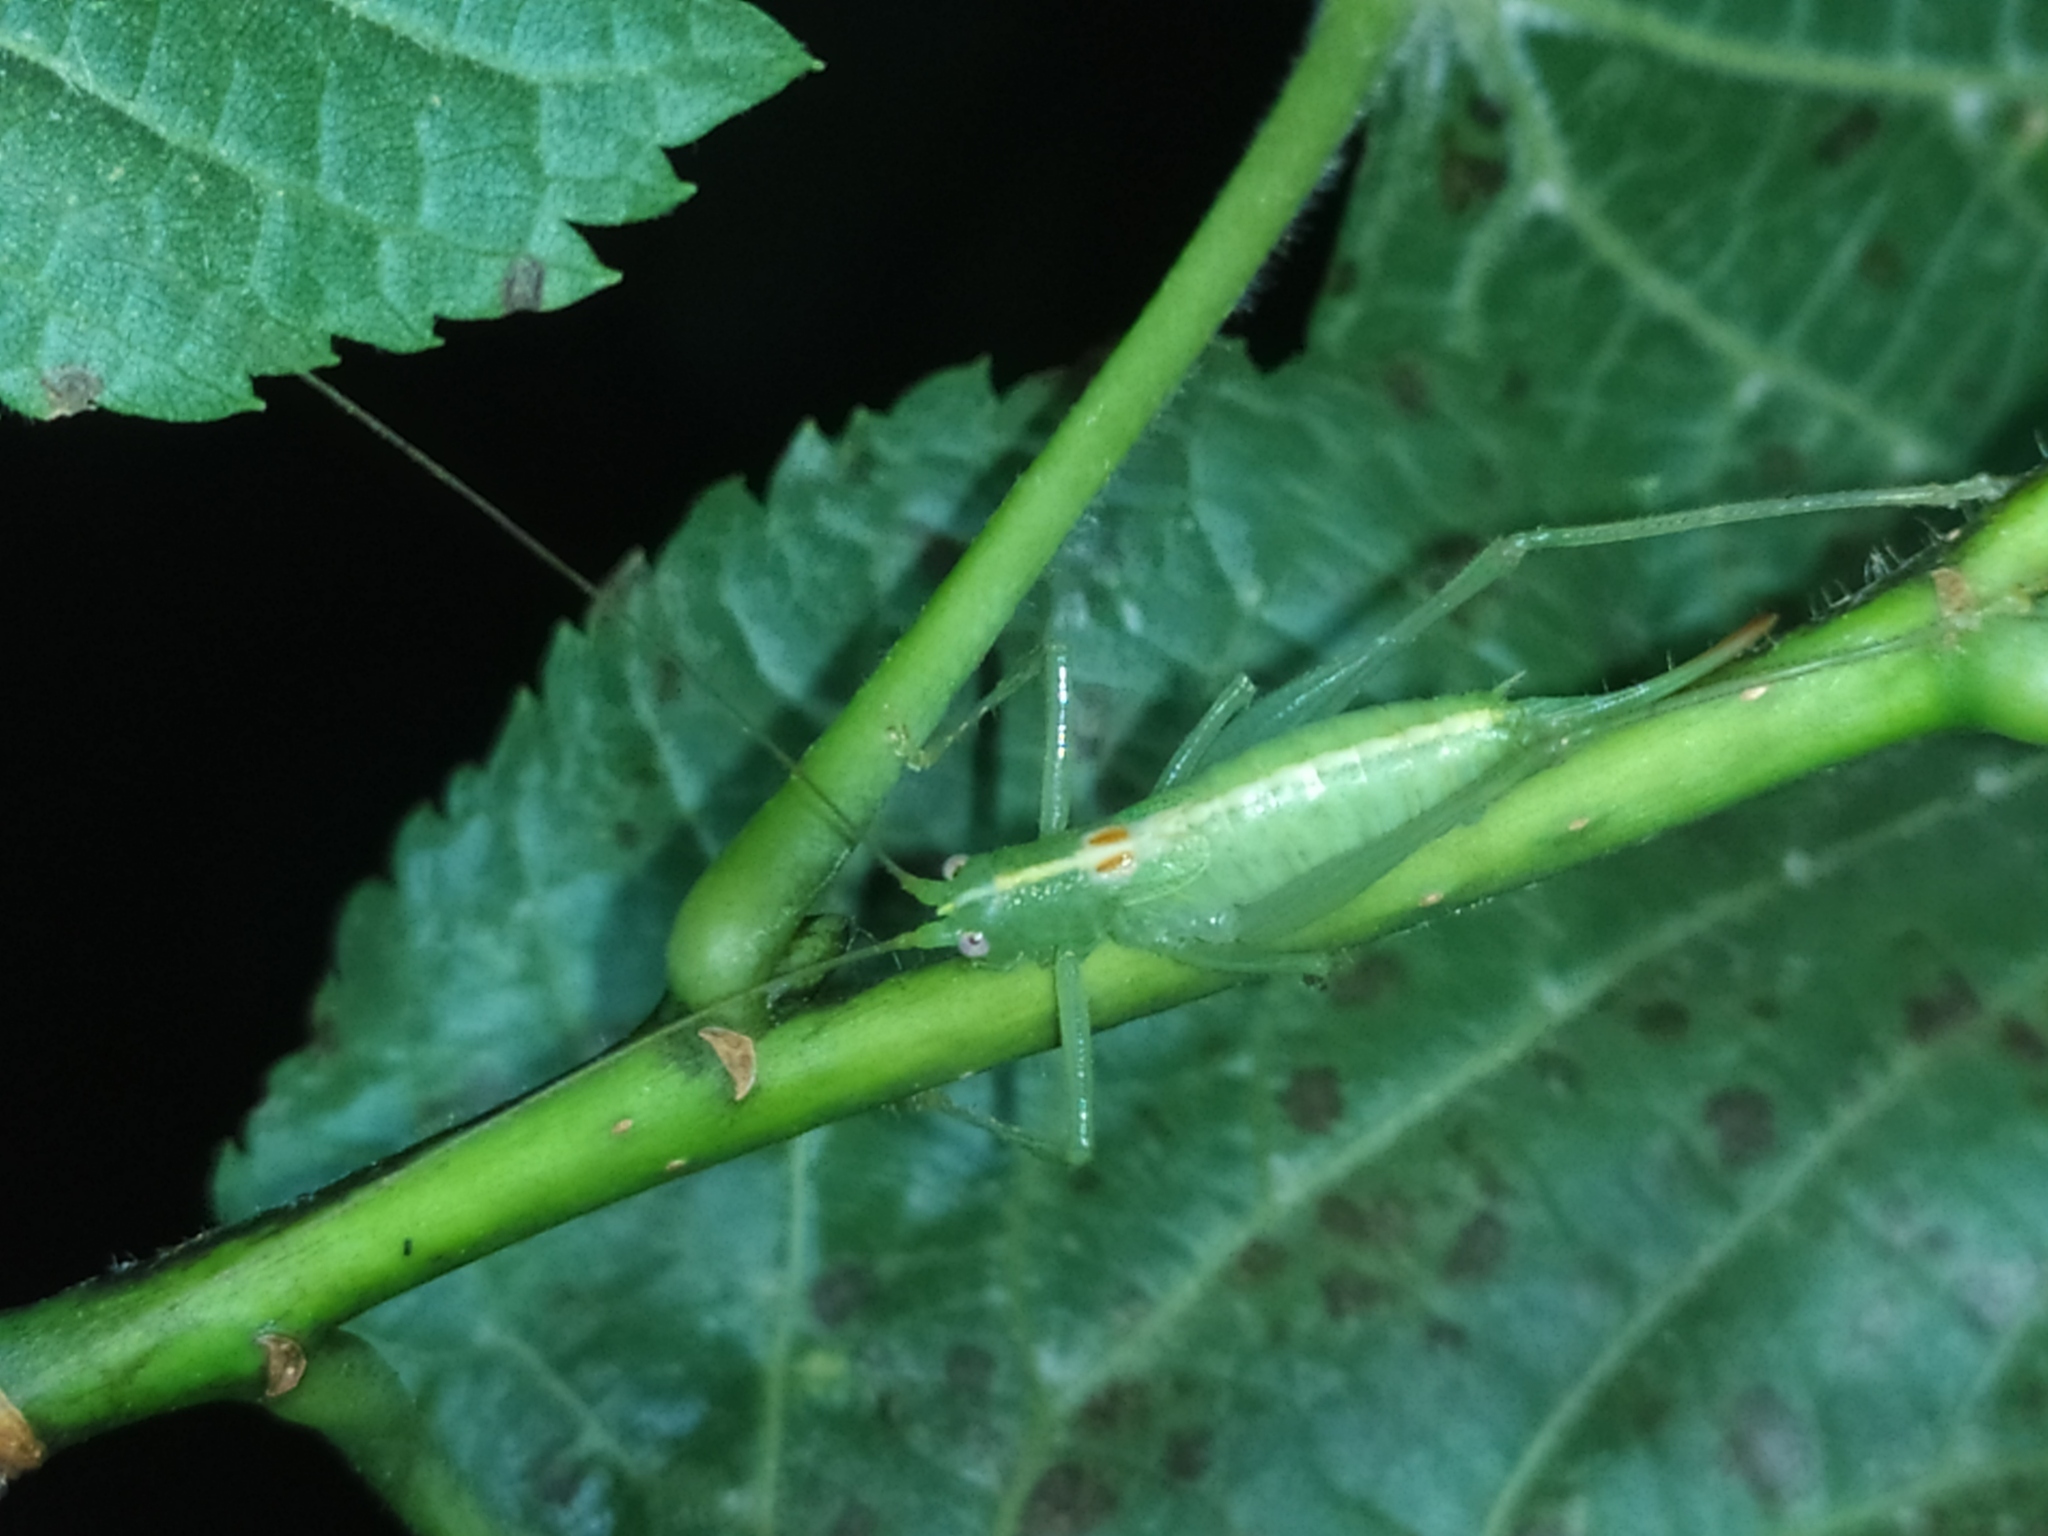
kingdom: Animalia
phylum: Arthropoda
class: Insecta
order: Orthoptera
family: Tettigoniidae
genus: Meconema
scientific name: Meconema meridionale
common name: Southern oak bush-cricket
